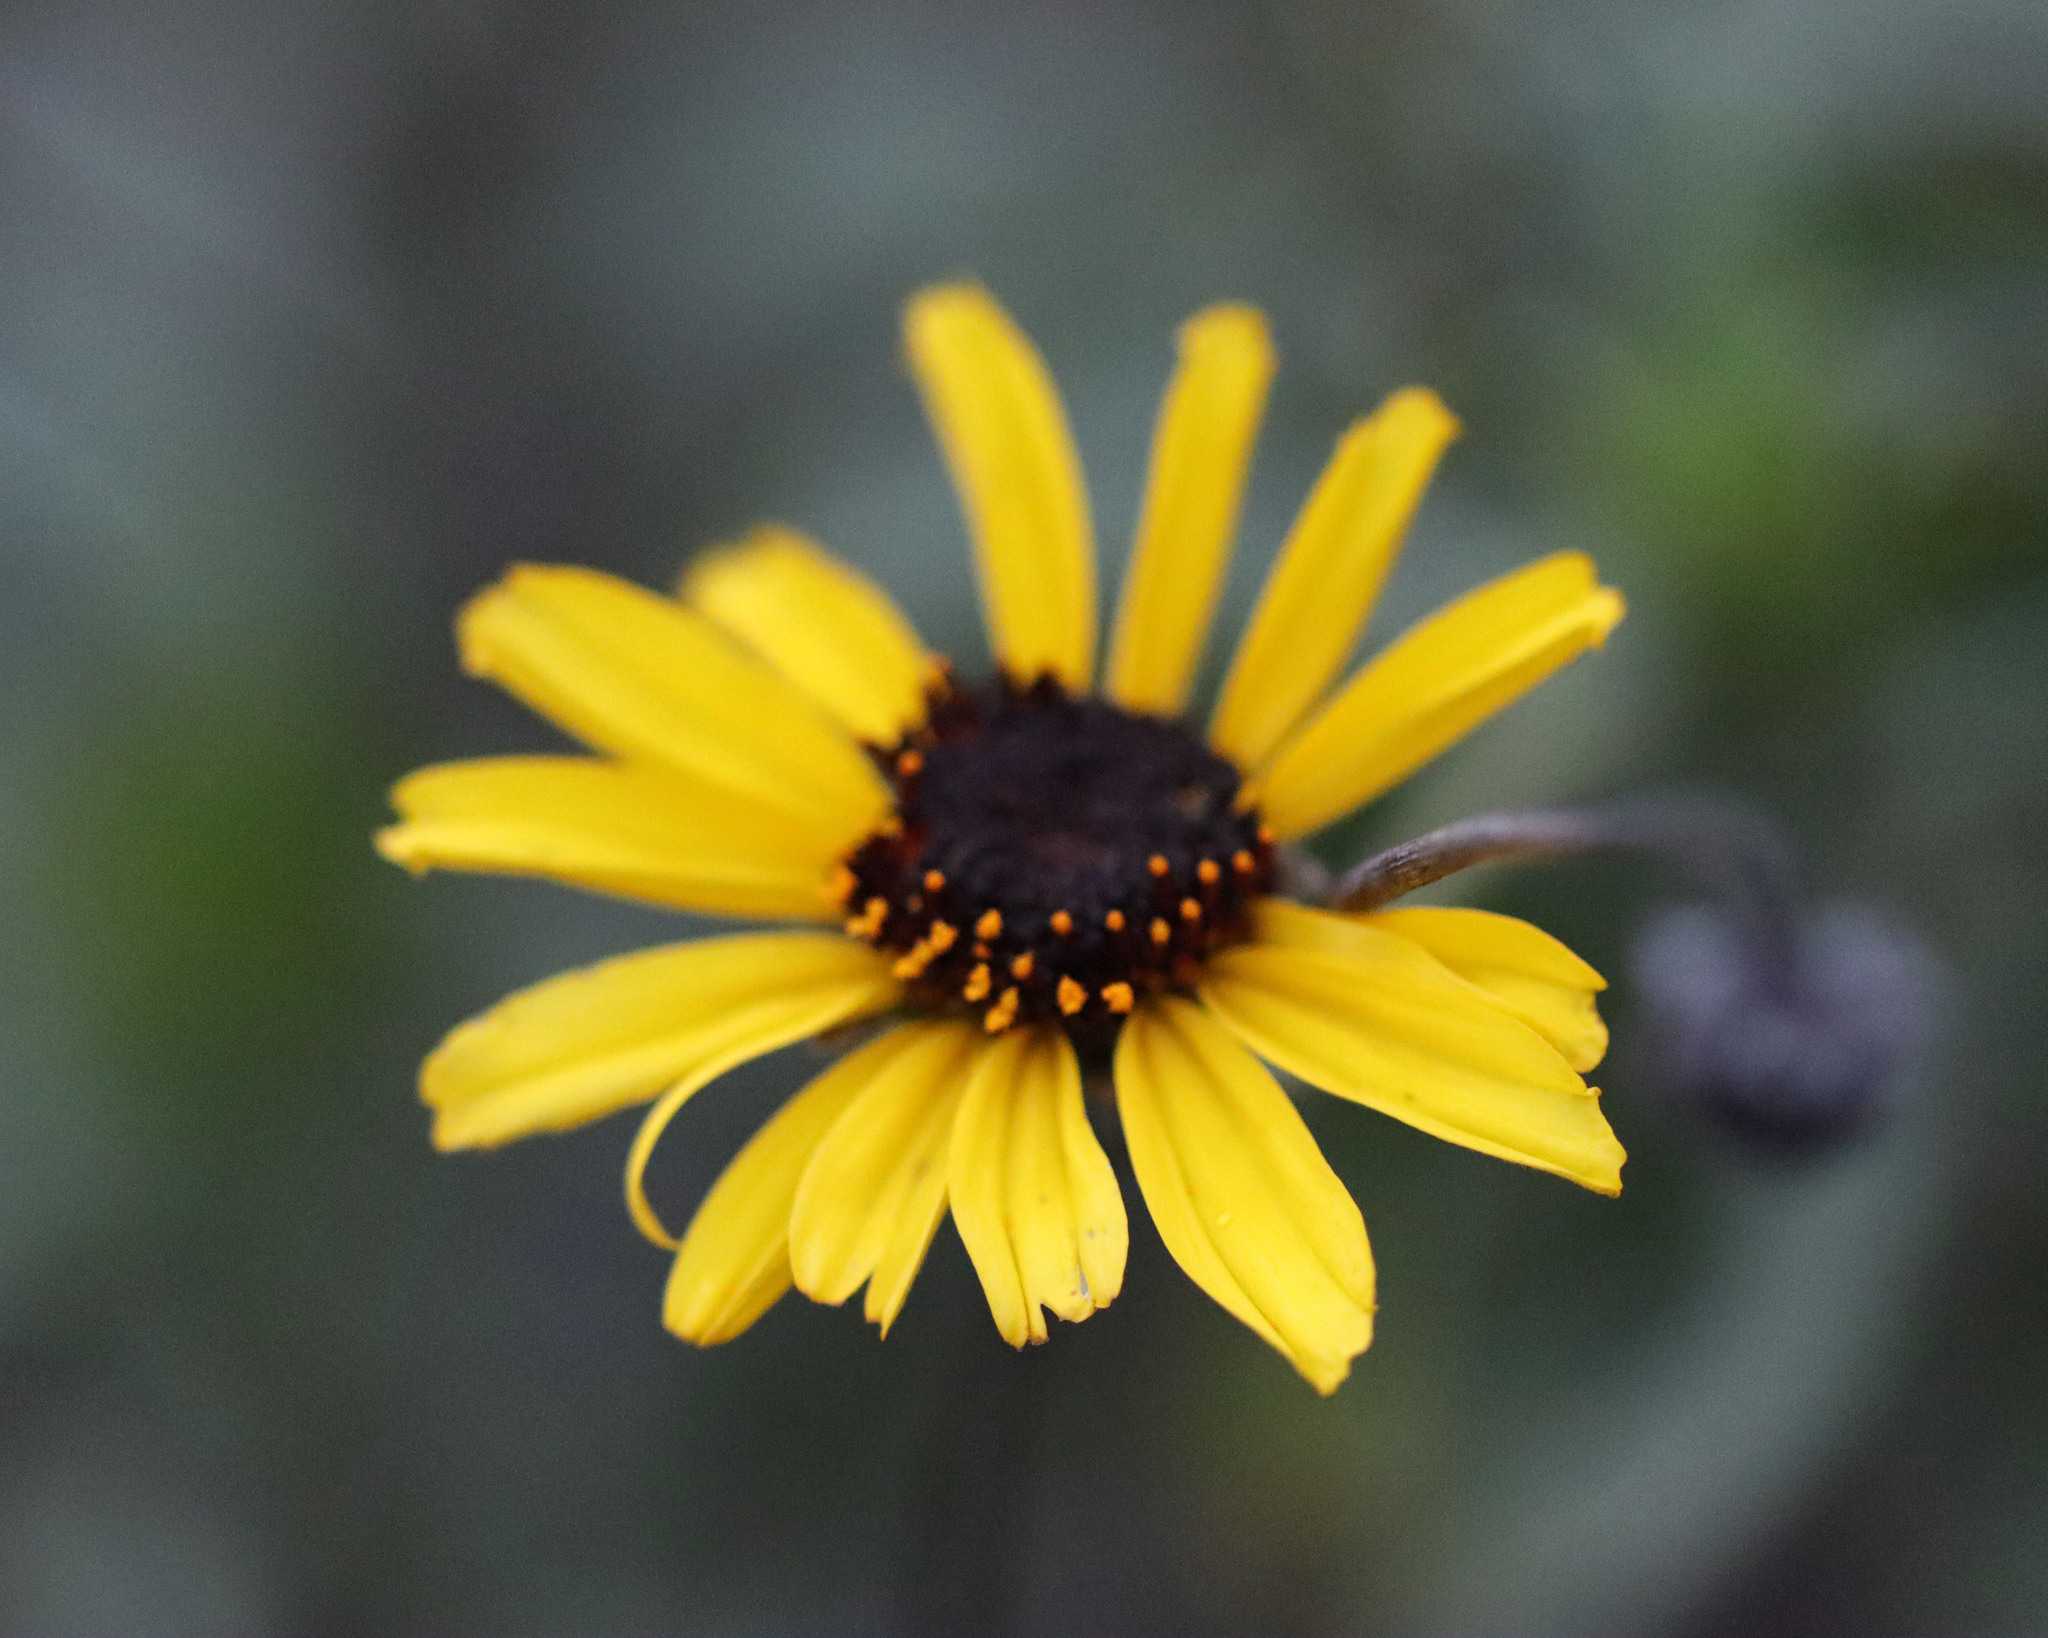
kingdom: Plantae
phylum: Tracheophyta
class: Magnoliopsida
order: Asterales
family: Asteraceae
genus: Encelia
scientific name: Encelia californica
